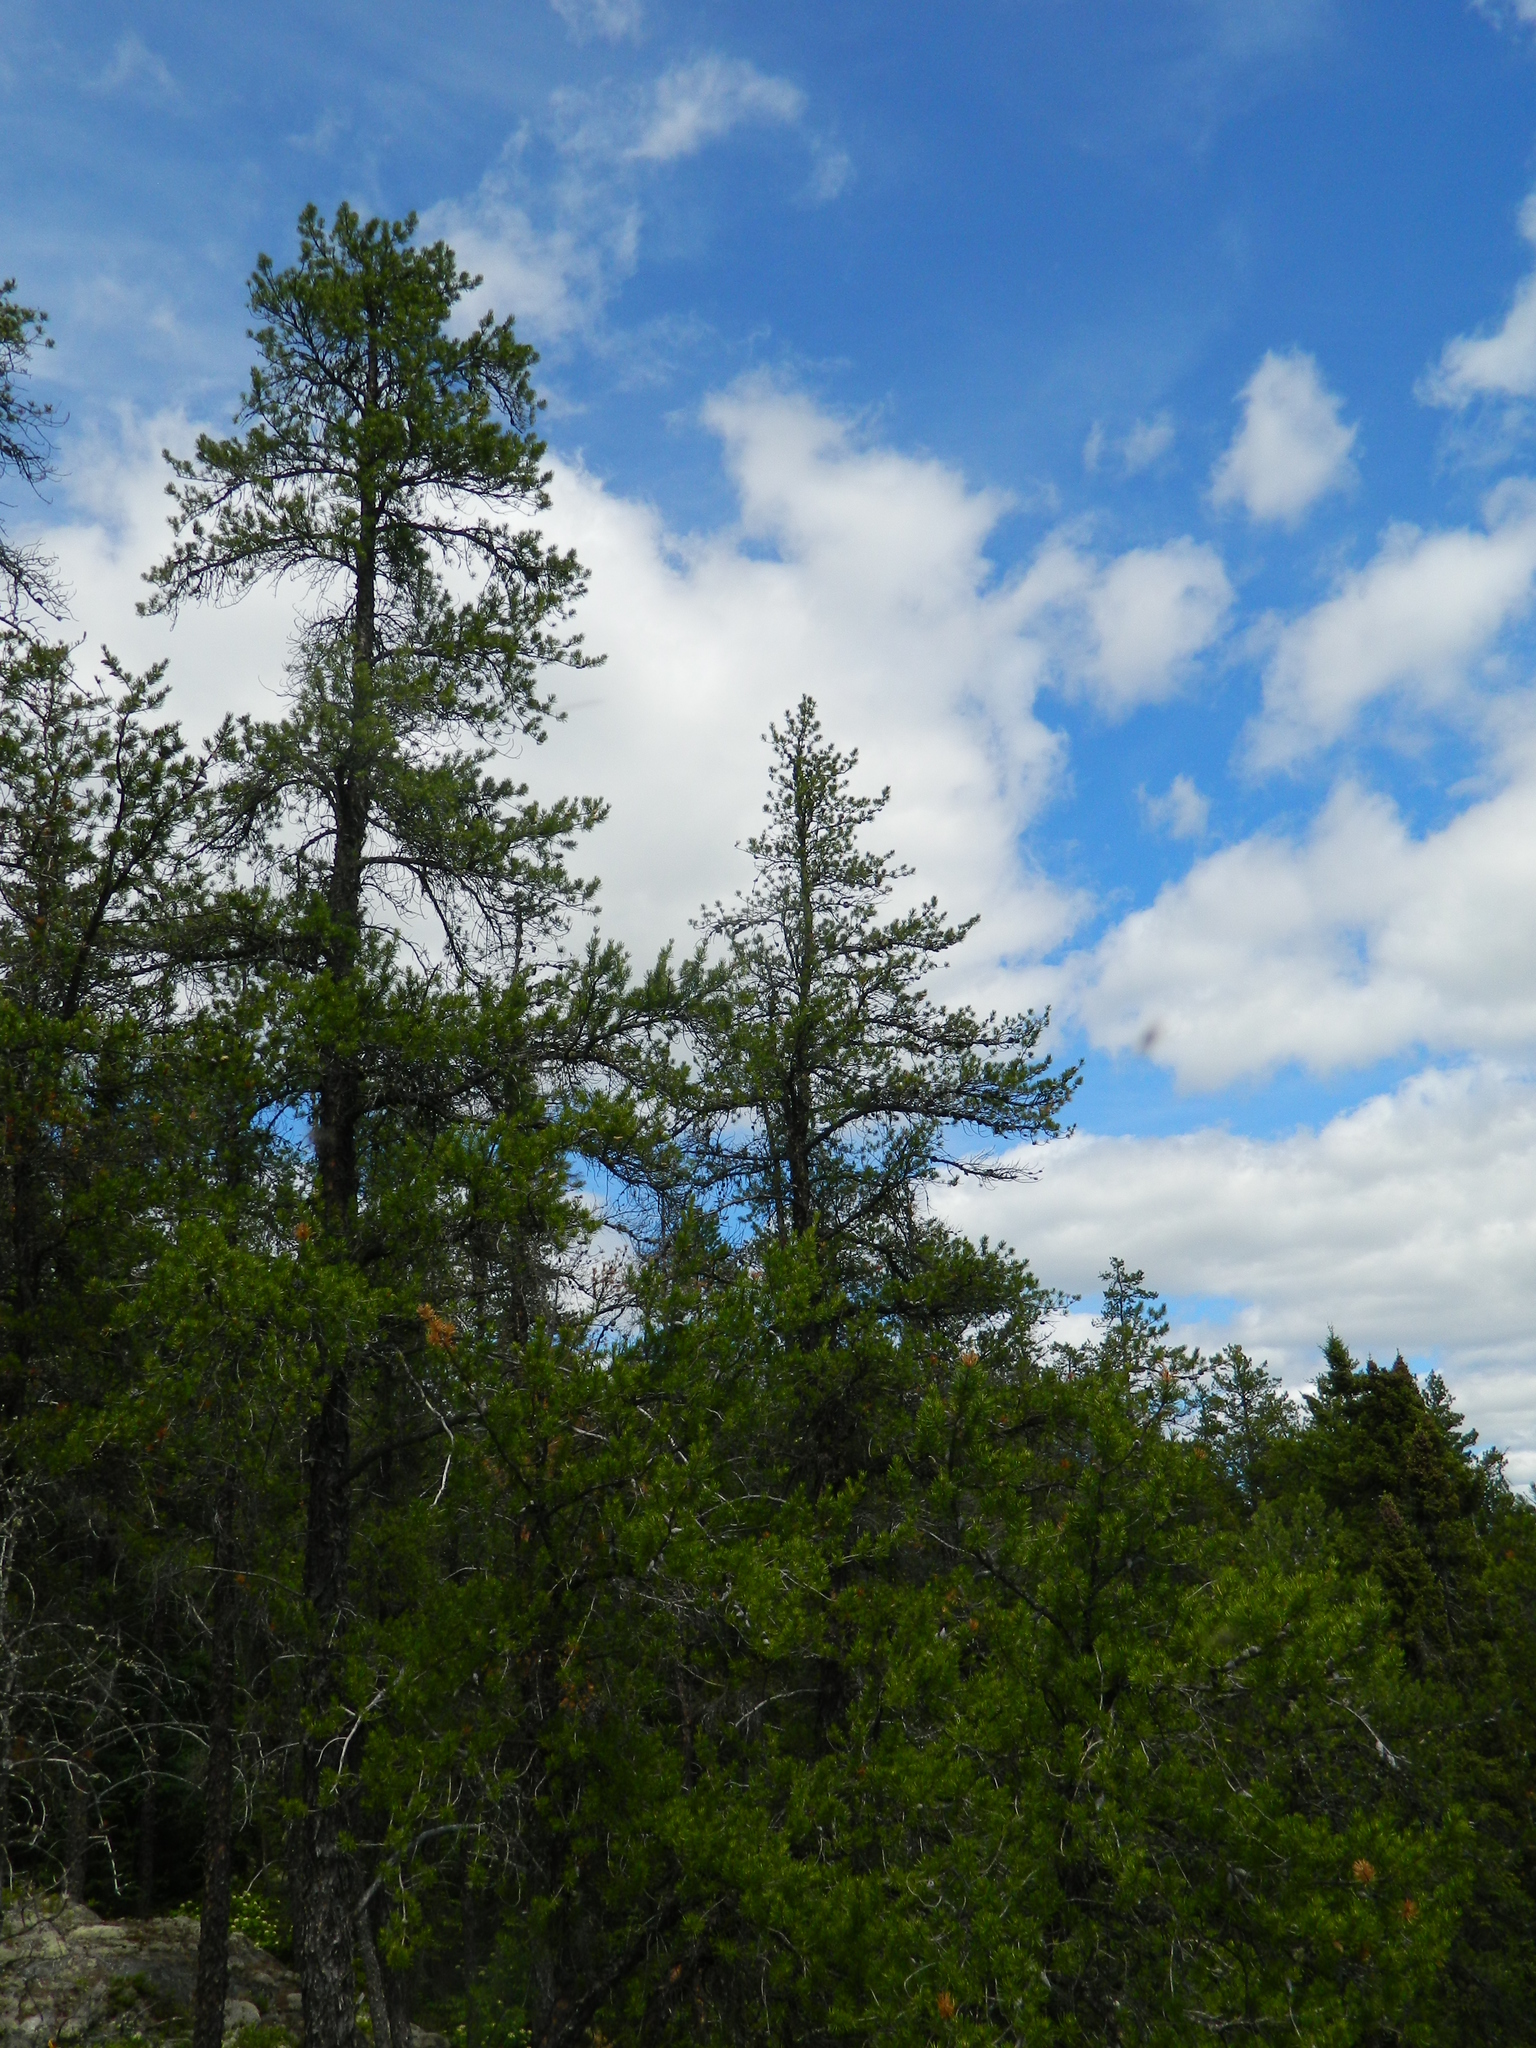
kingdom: Plantae
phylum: Tracheophyta
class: Pinopsida
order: Pinales
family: Pinaceae
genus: Pinus
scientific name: Pinus banksiana
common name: Jack pine
